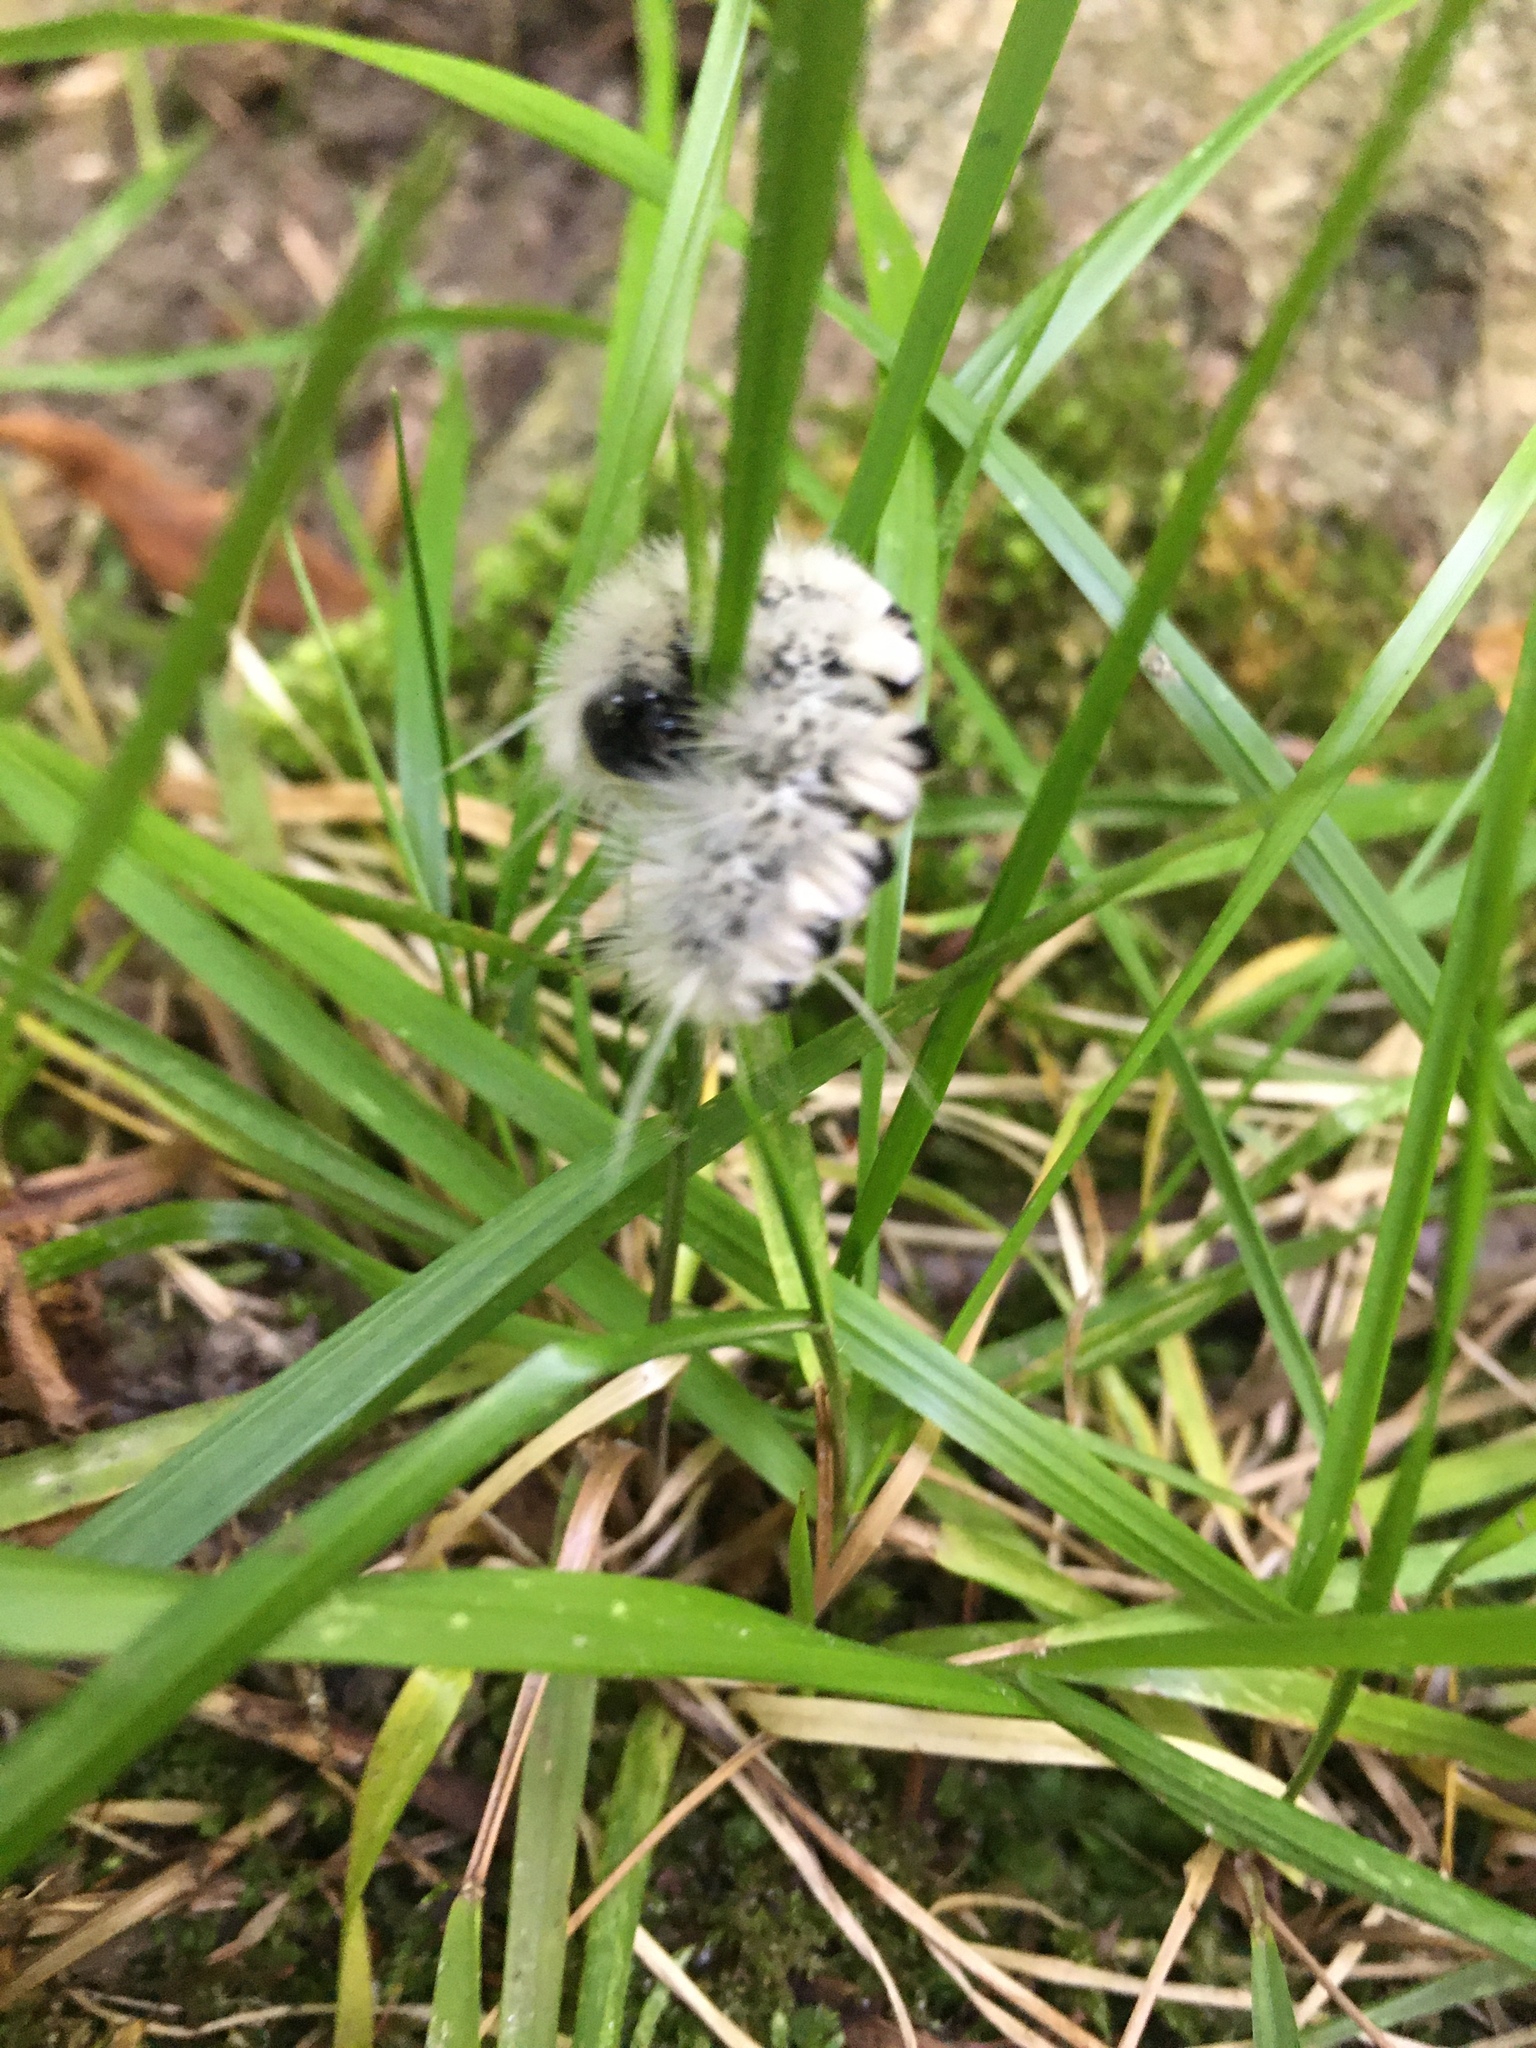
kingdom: Animalia
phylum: Arthropoda
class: Insecta
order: Lepidoptera
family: Erebidae
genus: Lophocampa
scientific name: Lophocampa caryae
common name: Hickory tussock moth
